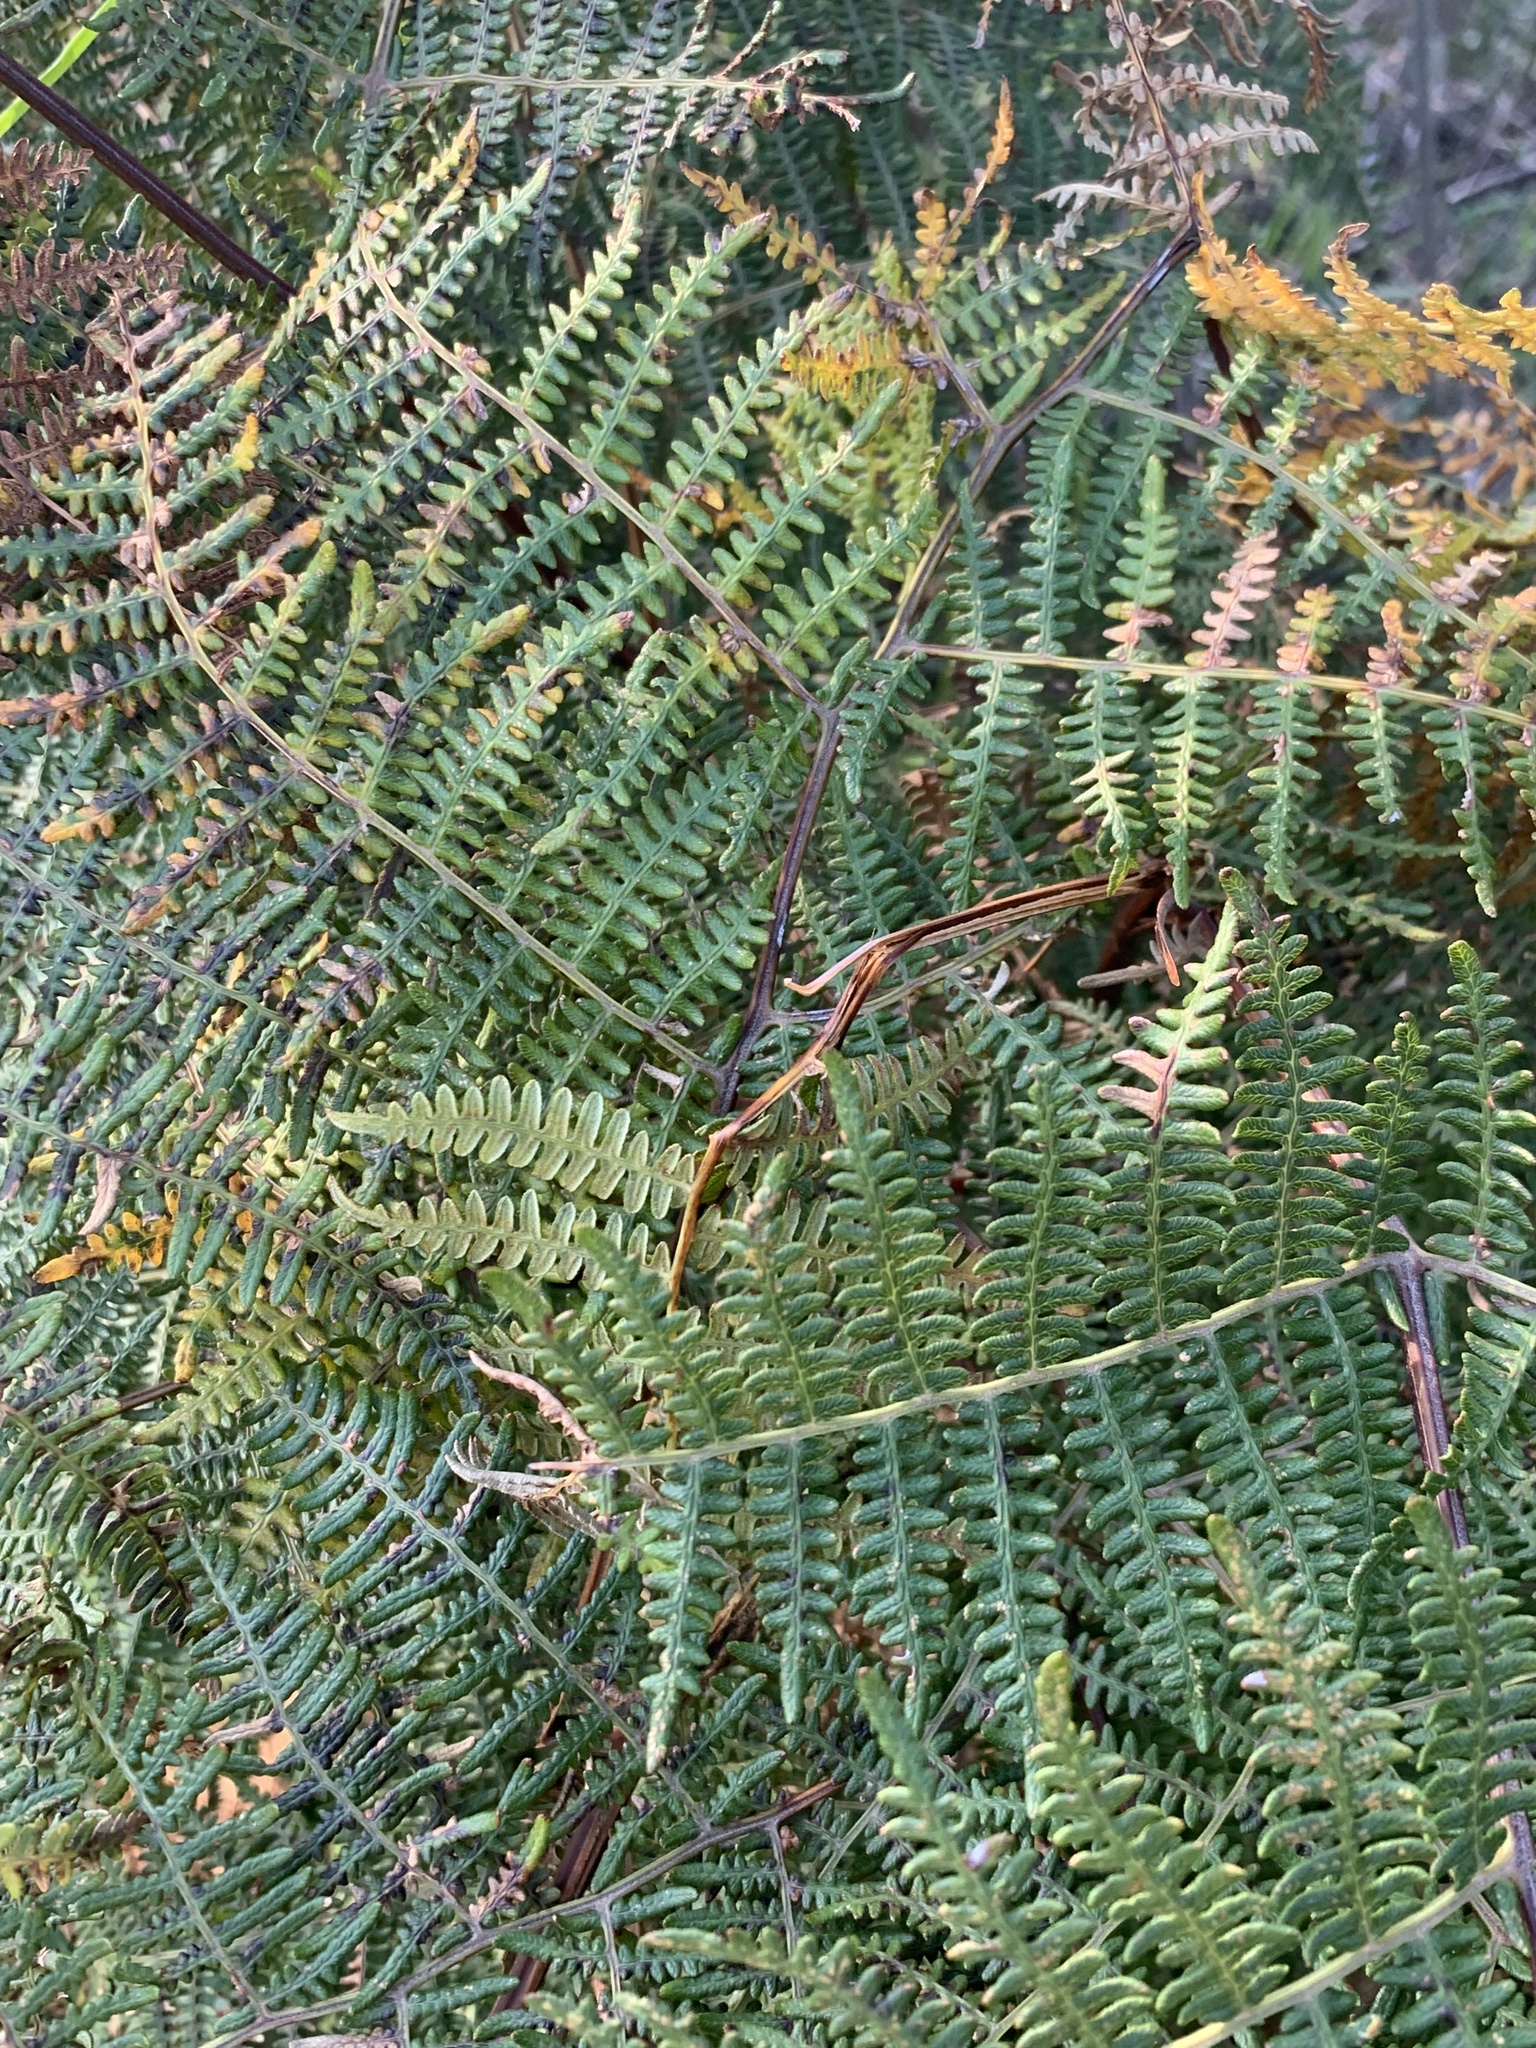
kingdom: Plantae
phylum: Tracheophyta
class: Polypodiopsida
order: Polypodiales
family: Dennstaedtiaceae
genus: Pteridium
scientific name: Pteridium aquilinum
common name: Bracken
